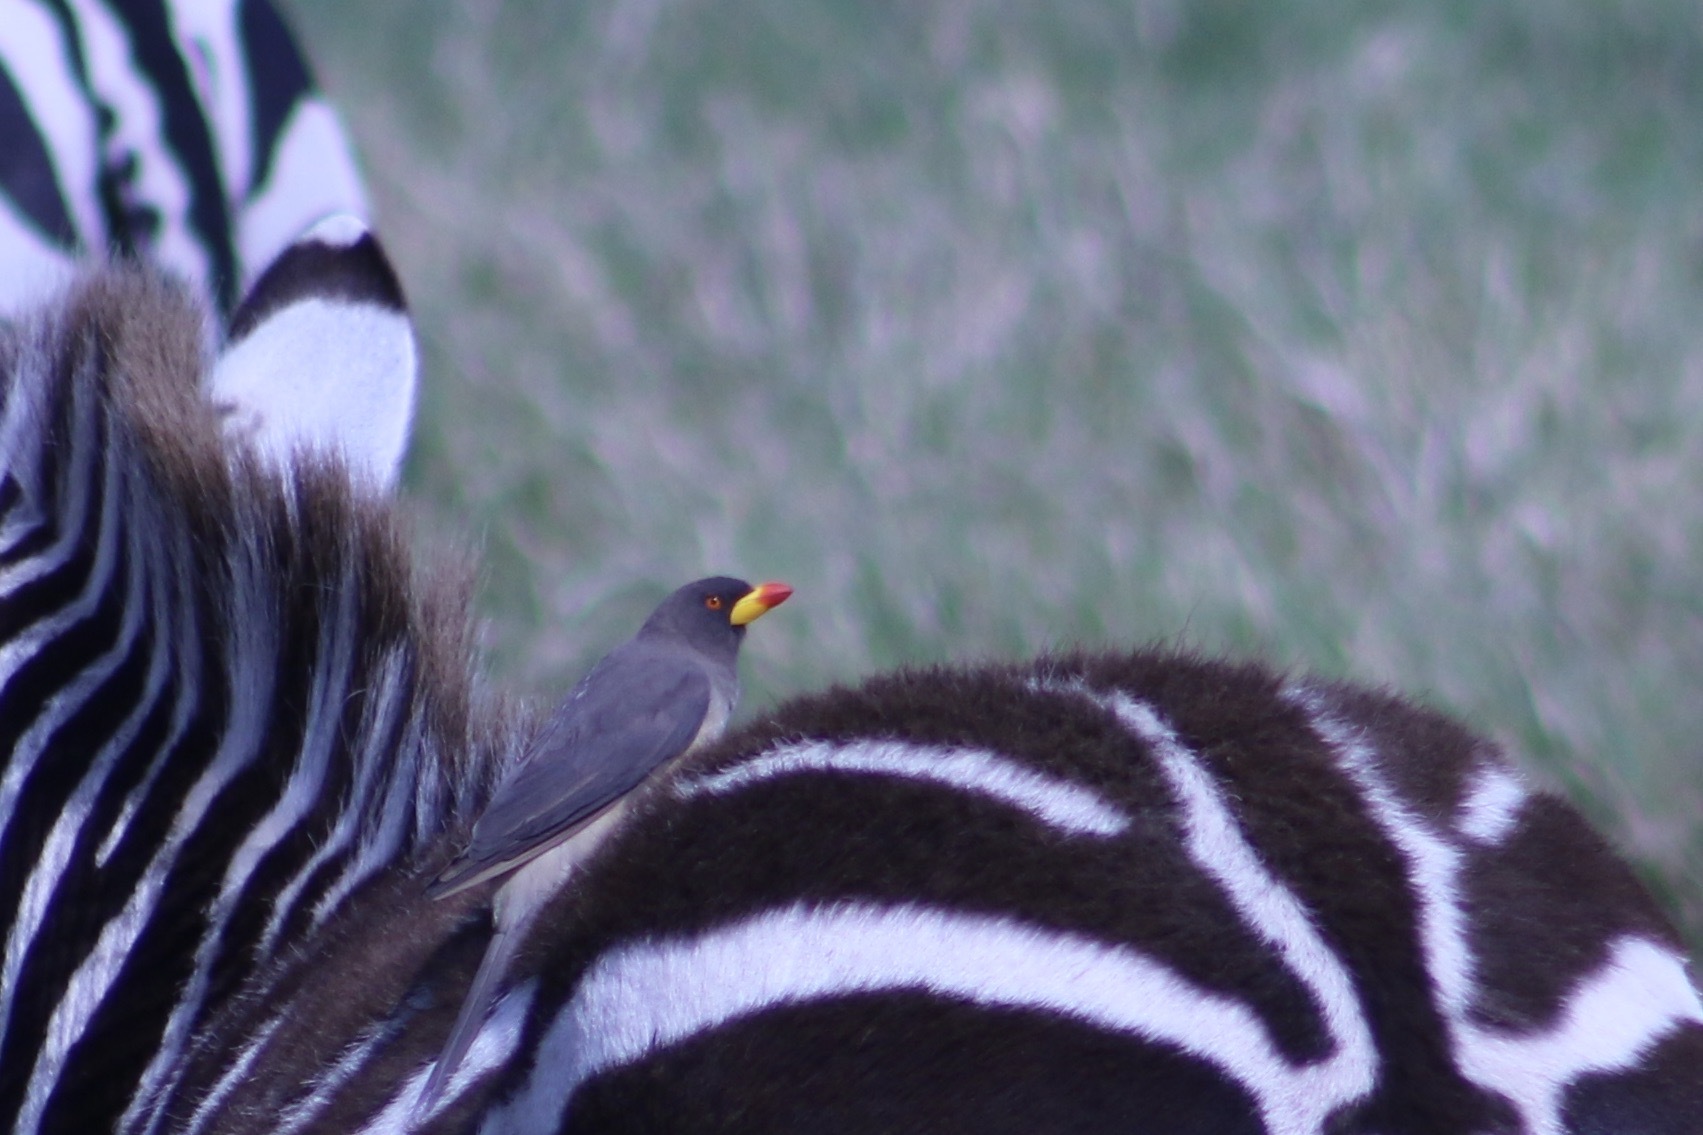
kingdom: Animalia
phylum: Chordata
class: Aves
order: Passeriformes
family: Buphagidae
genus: Buphagus
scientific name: Buphagus africanus
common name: Yellow-billed oxpecker
